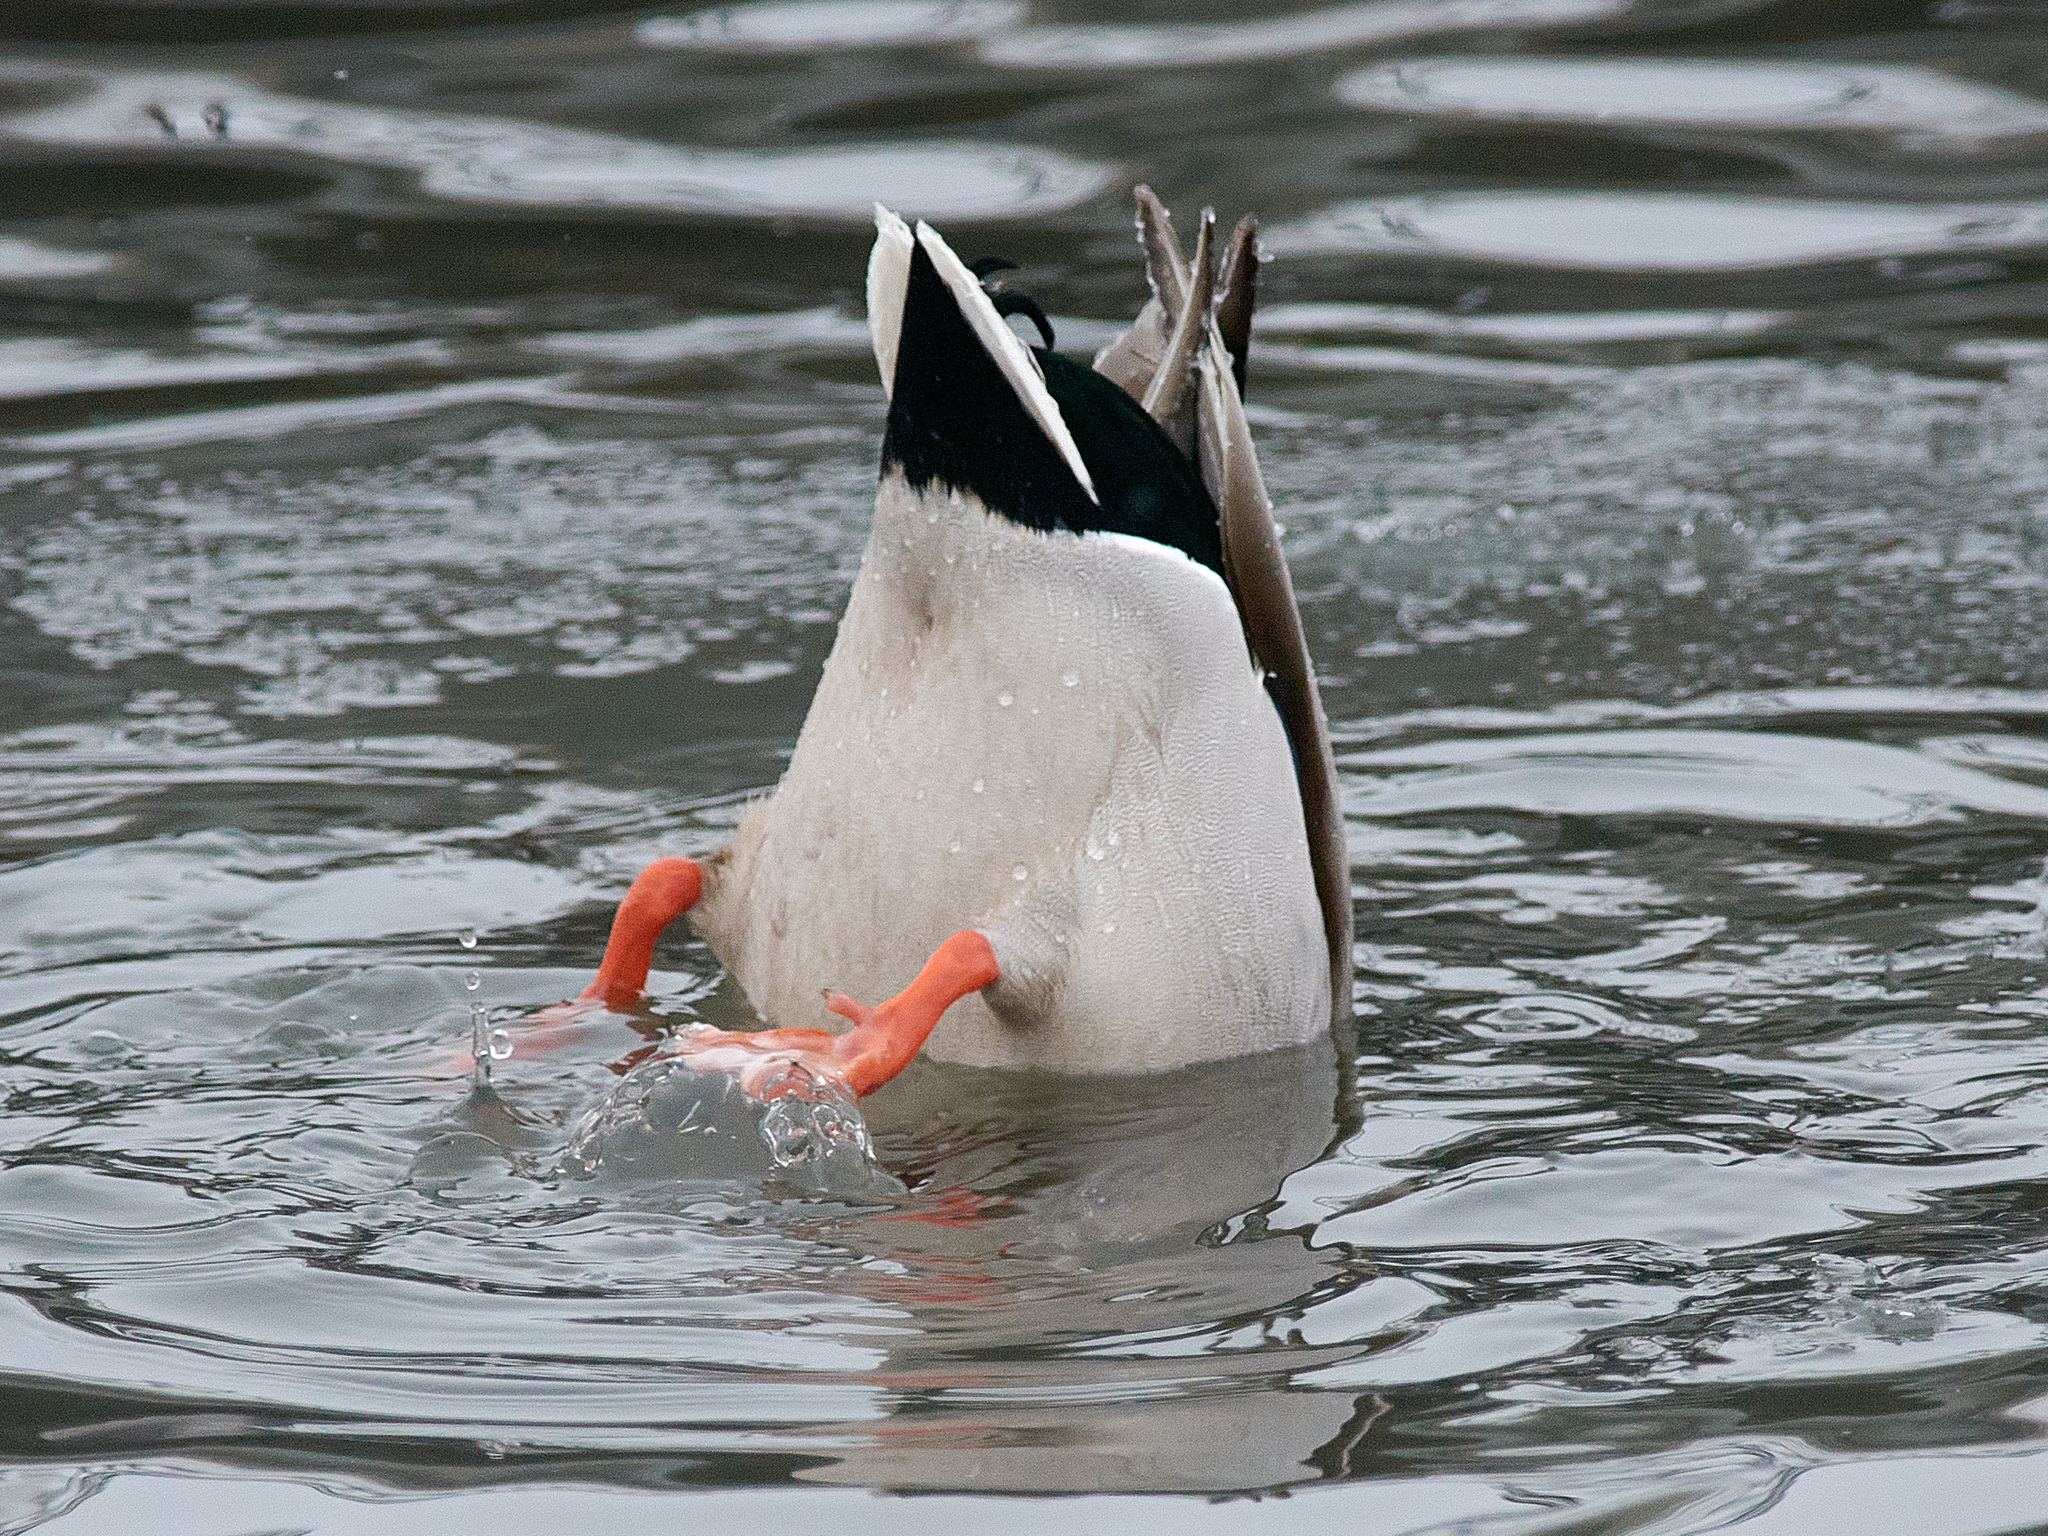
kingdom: Animalia
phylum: Chordata
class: Aves
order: Anseriformes
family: Anatidae
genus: Anas
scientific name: Anas platyrhynchos
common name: Mallard
